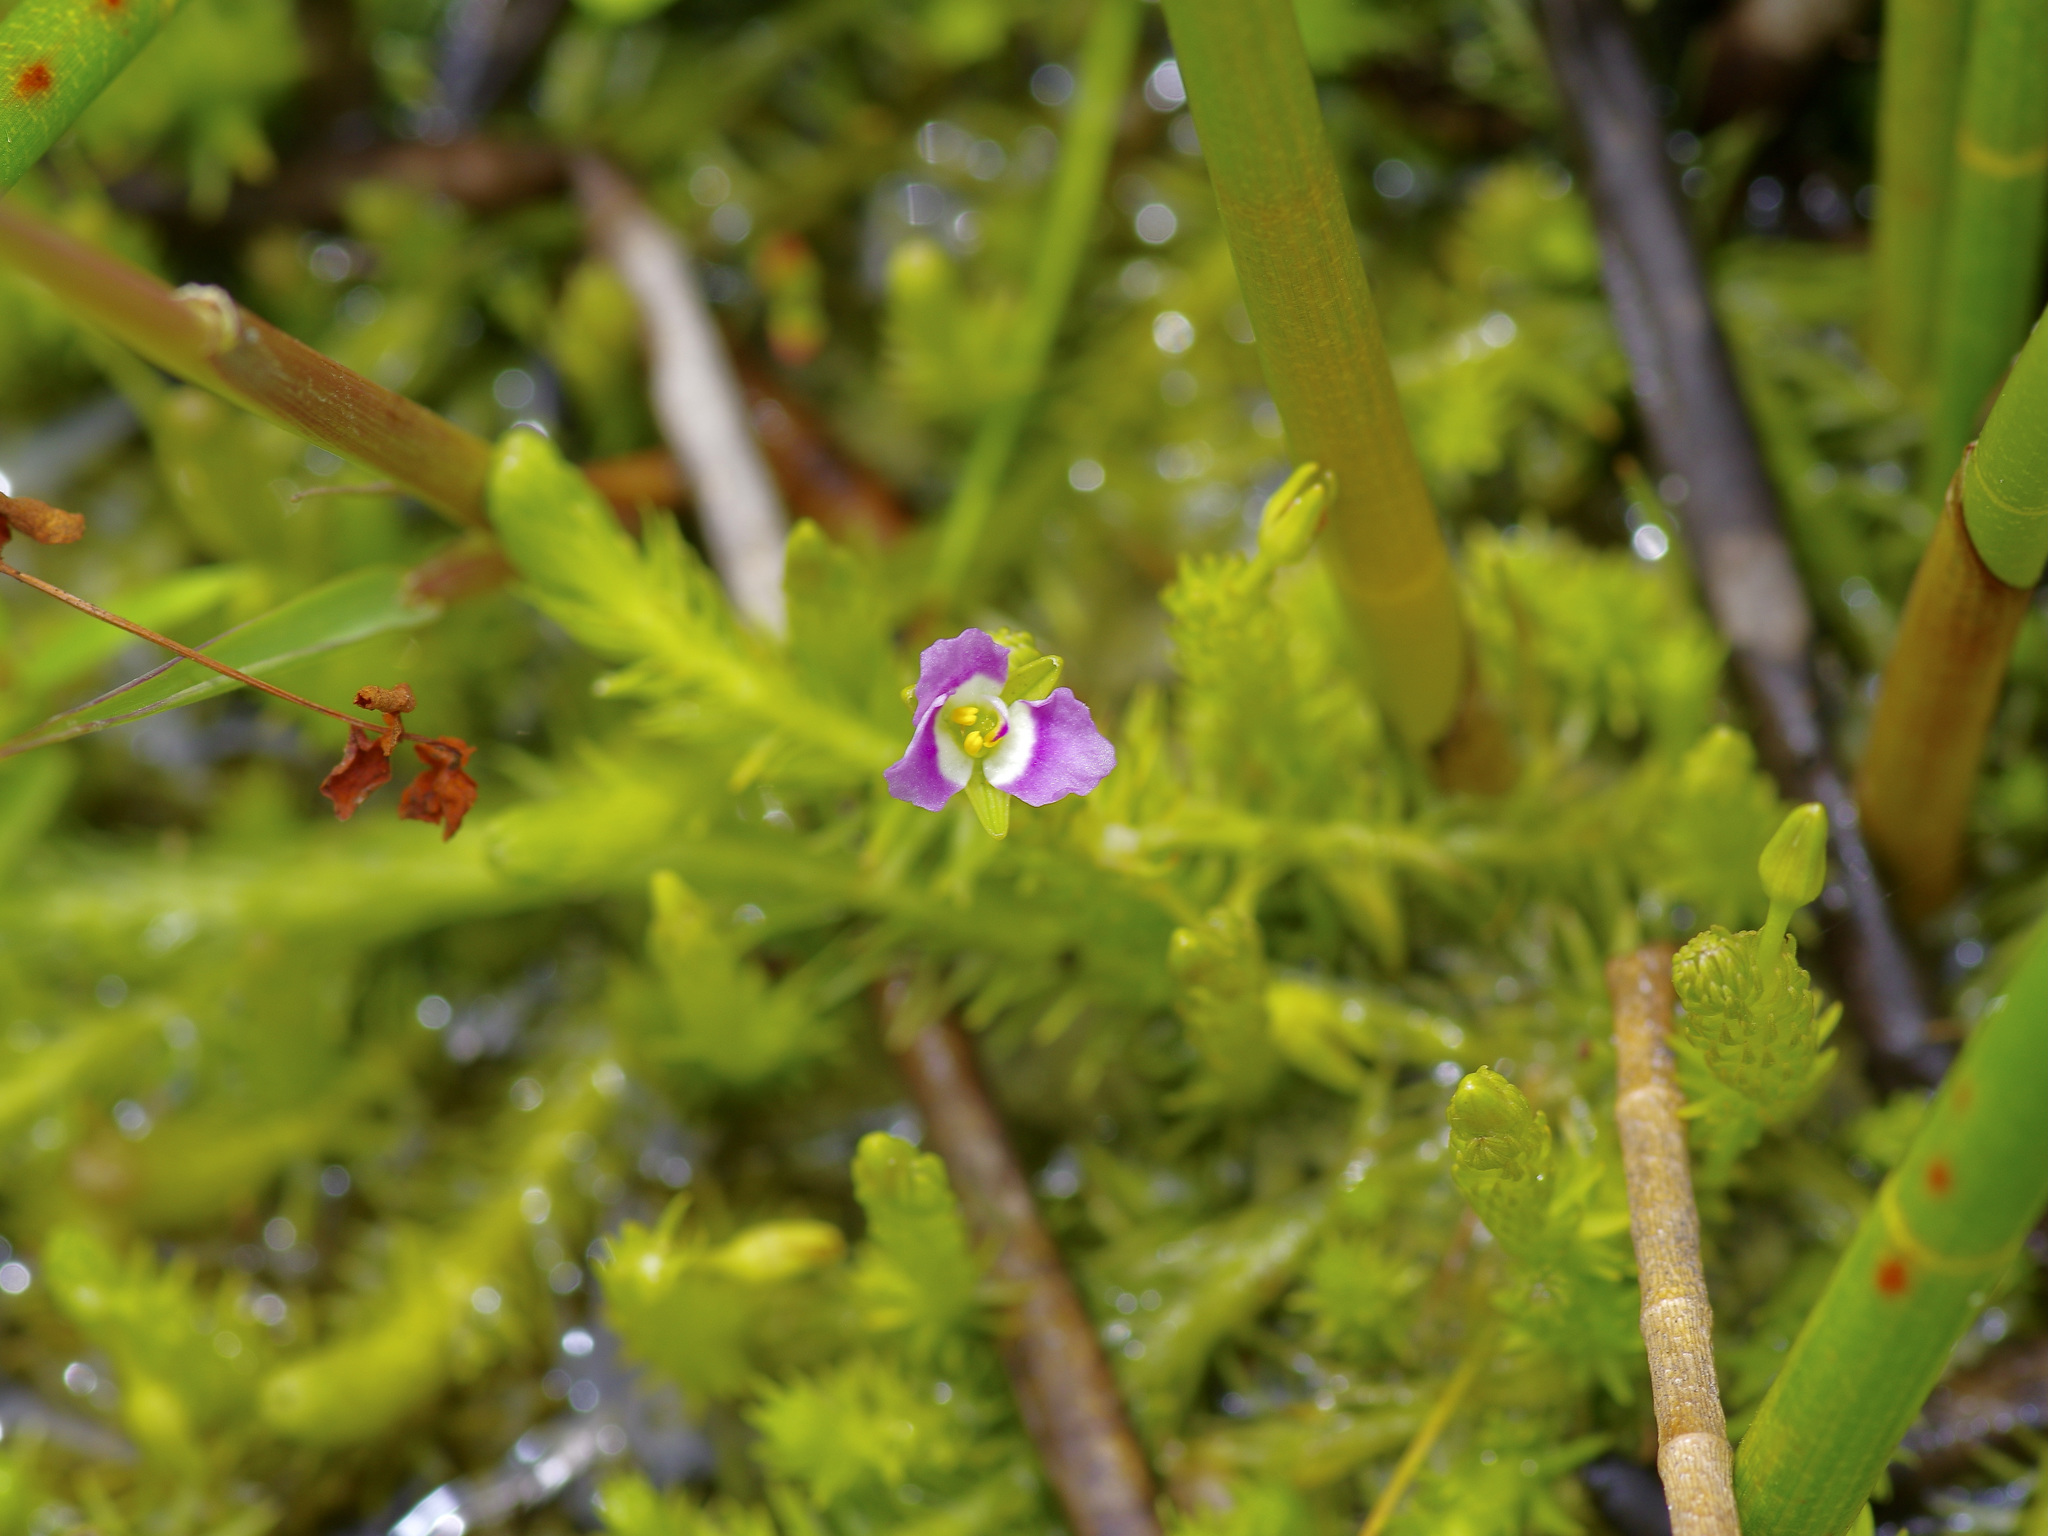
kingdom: Plantae
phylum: Tracheophyta
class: Liliopsida
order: Poales
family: Mayacaceae
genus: Mayaca
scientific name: Mayaca fluviatilis
